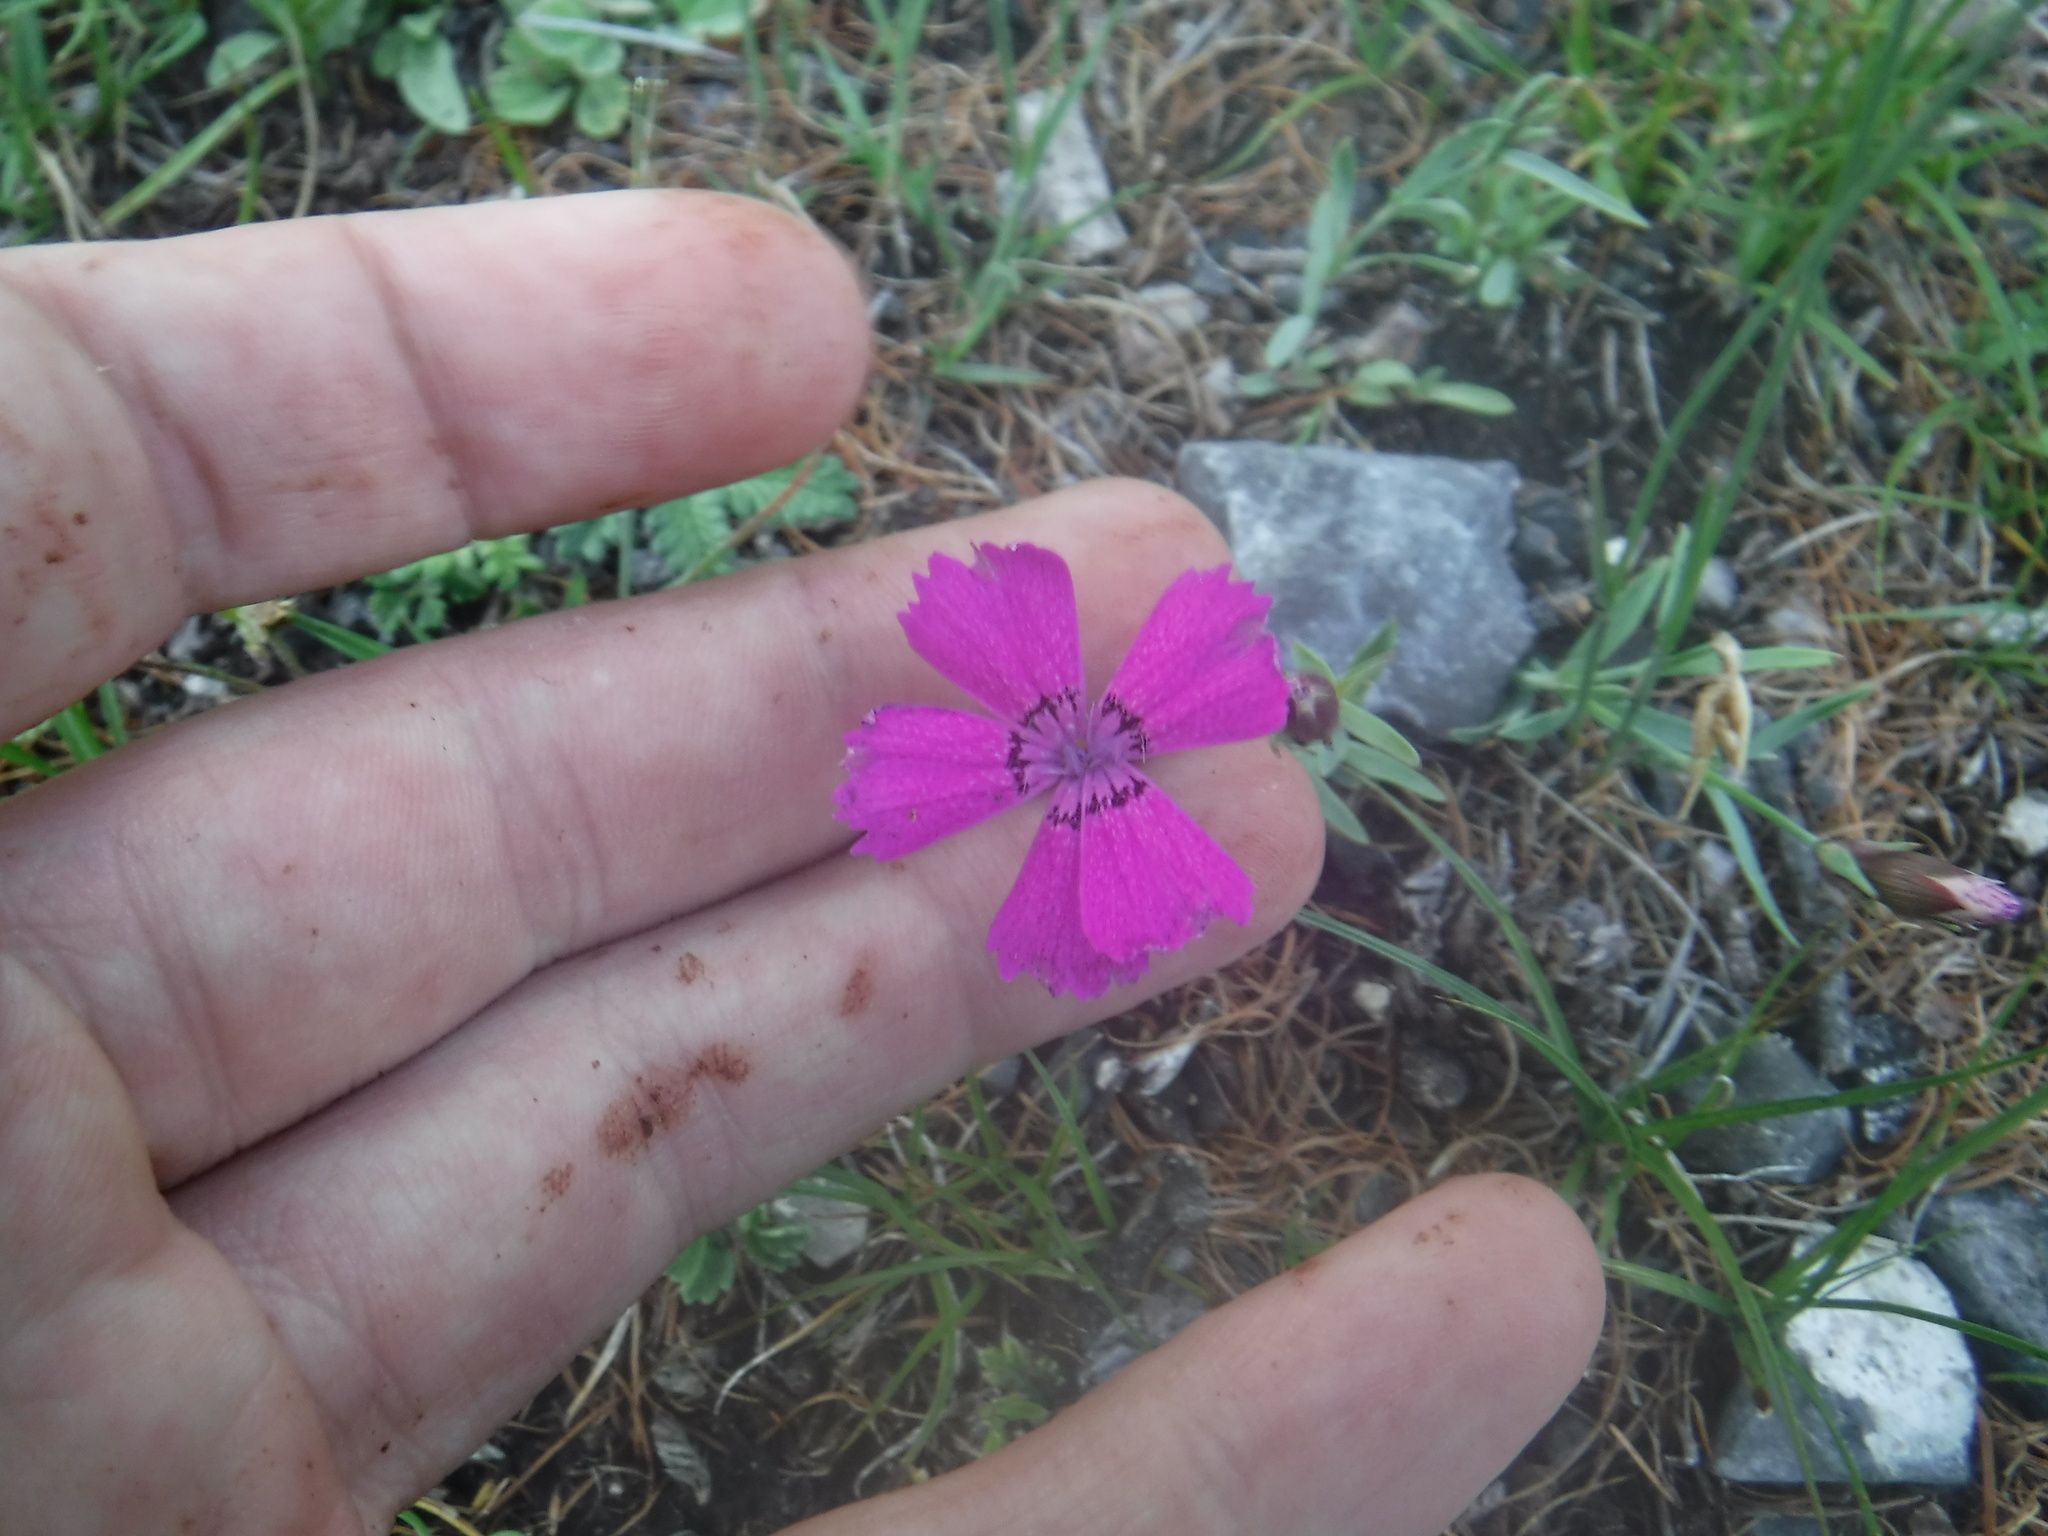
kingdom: Plantae
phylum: Tracheophyta
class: Magnoliopsida
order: Caryophyllales
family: Caryophyllaceae
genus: Dianthus
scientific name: Dianthus chinensis
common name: Rainbow pink
